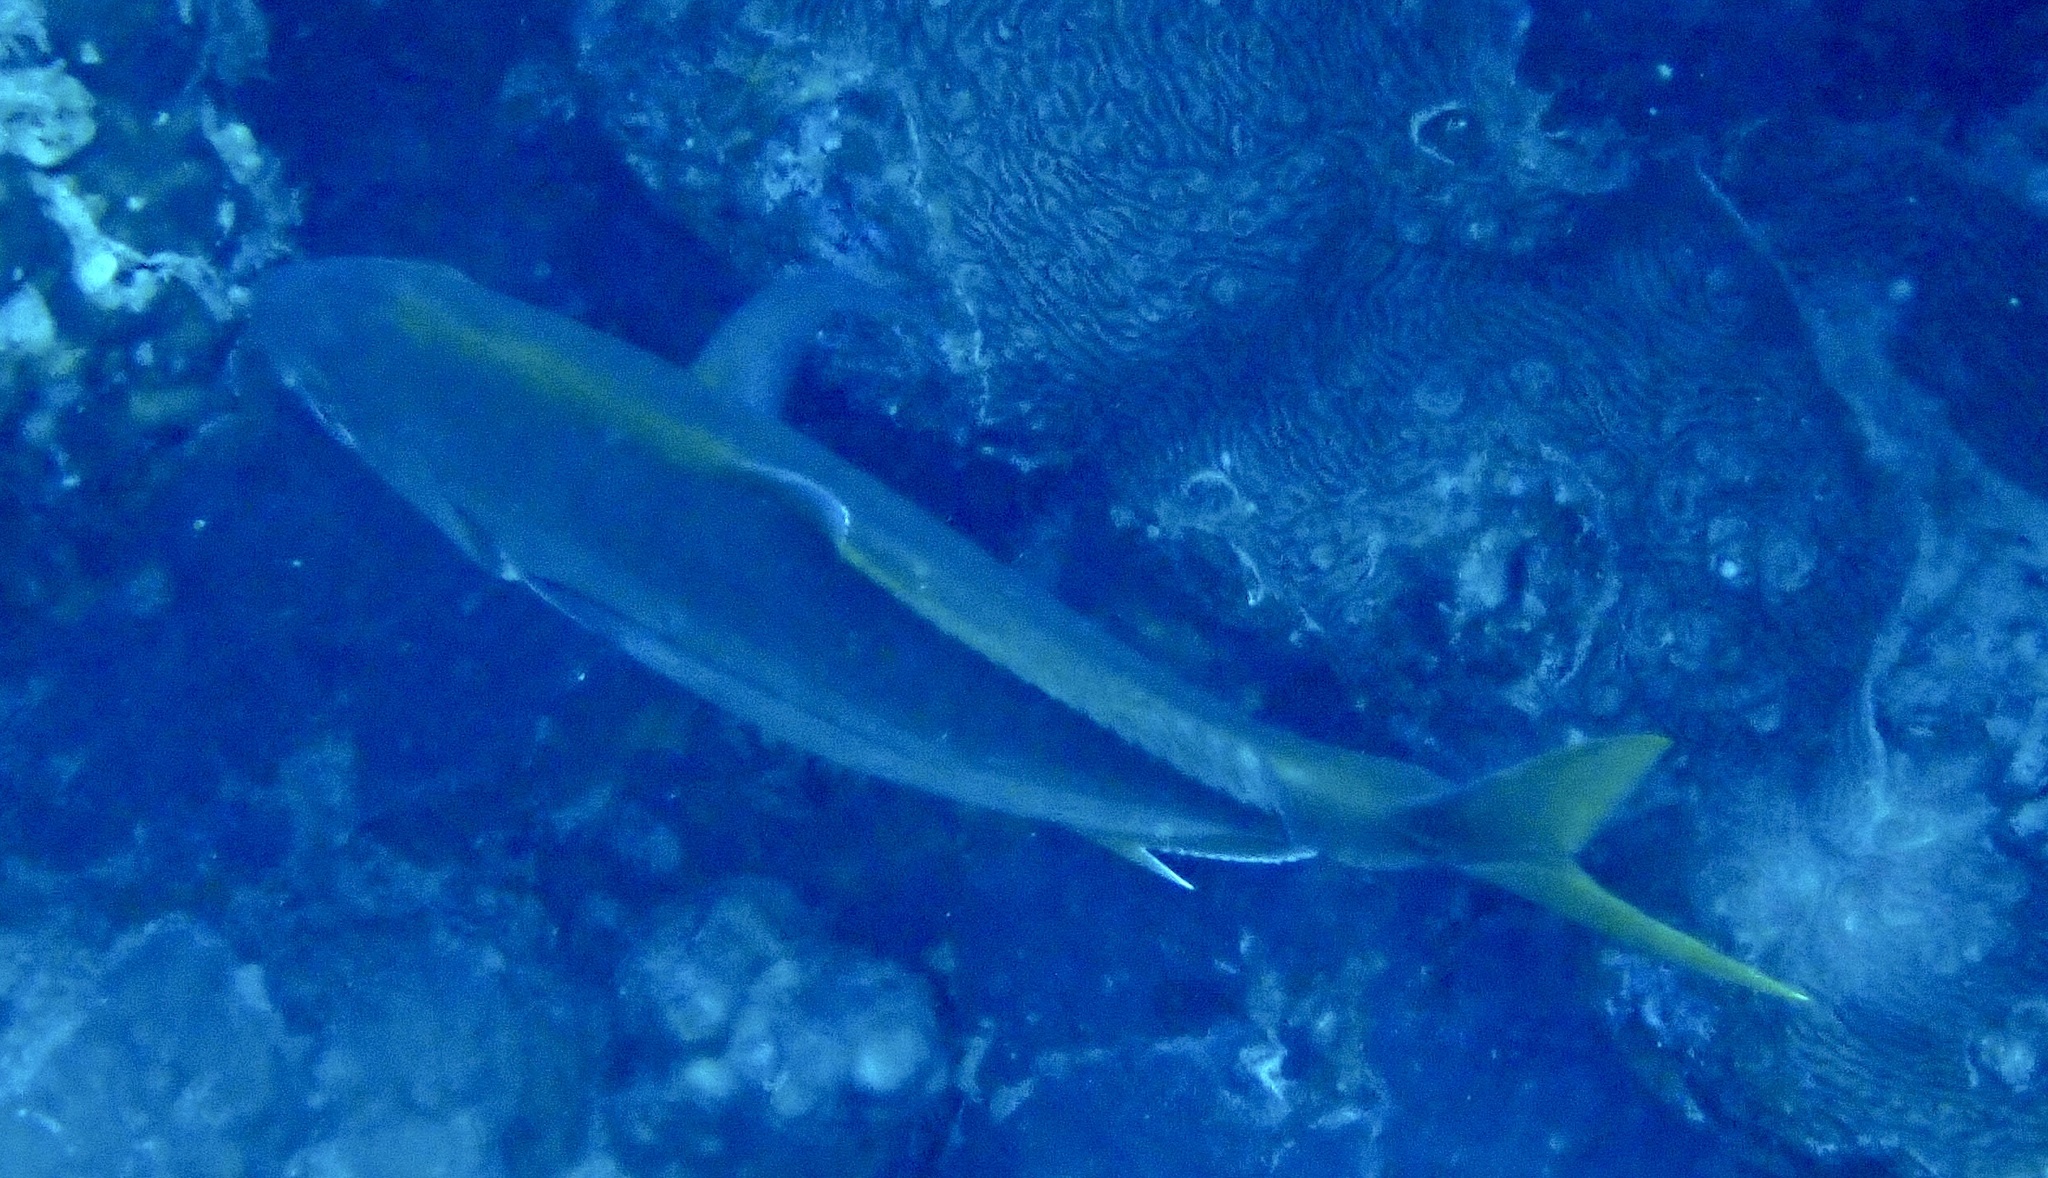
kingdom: Animalia
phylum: Chordata
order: Perciformes
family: Carangidae
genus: Flavocaranx
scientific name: Flavocaranx bajad
